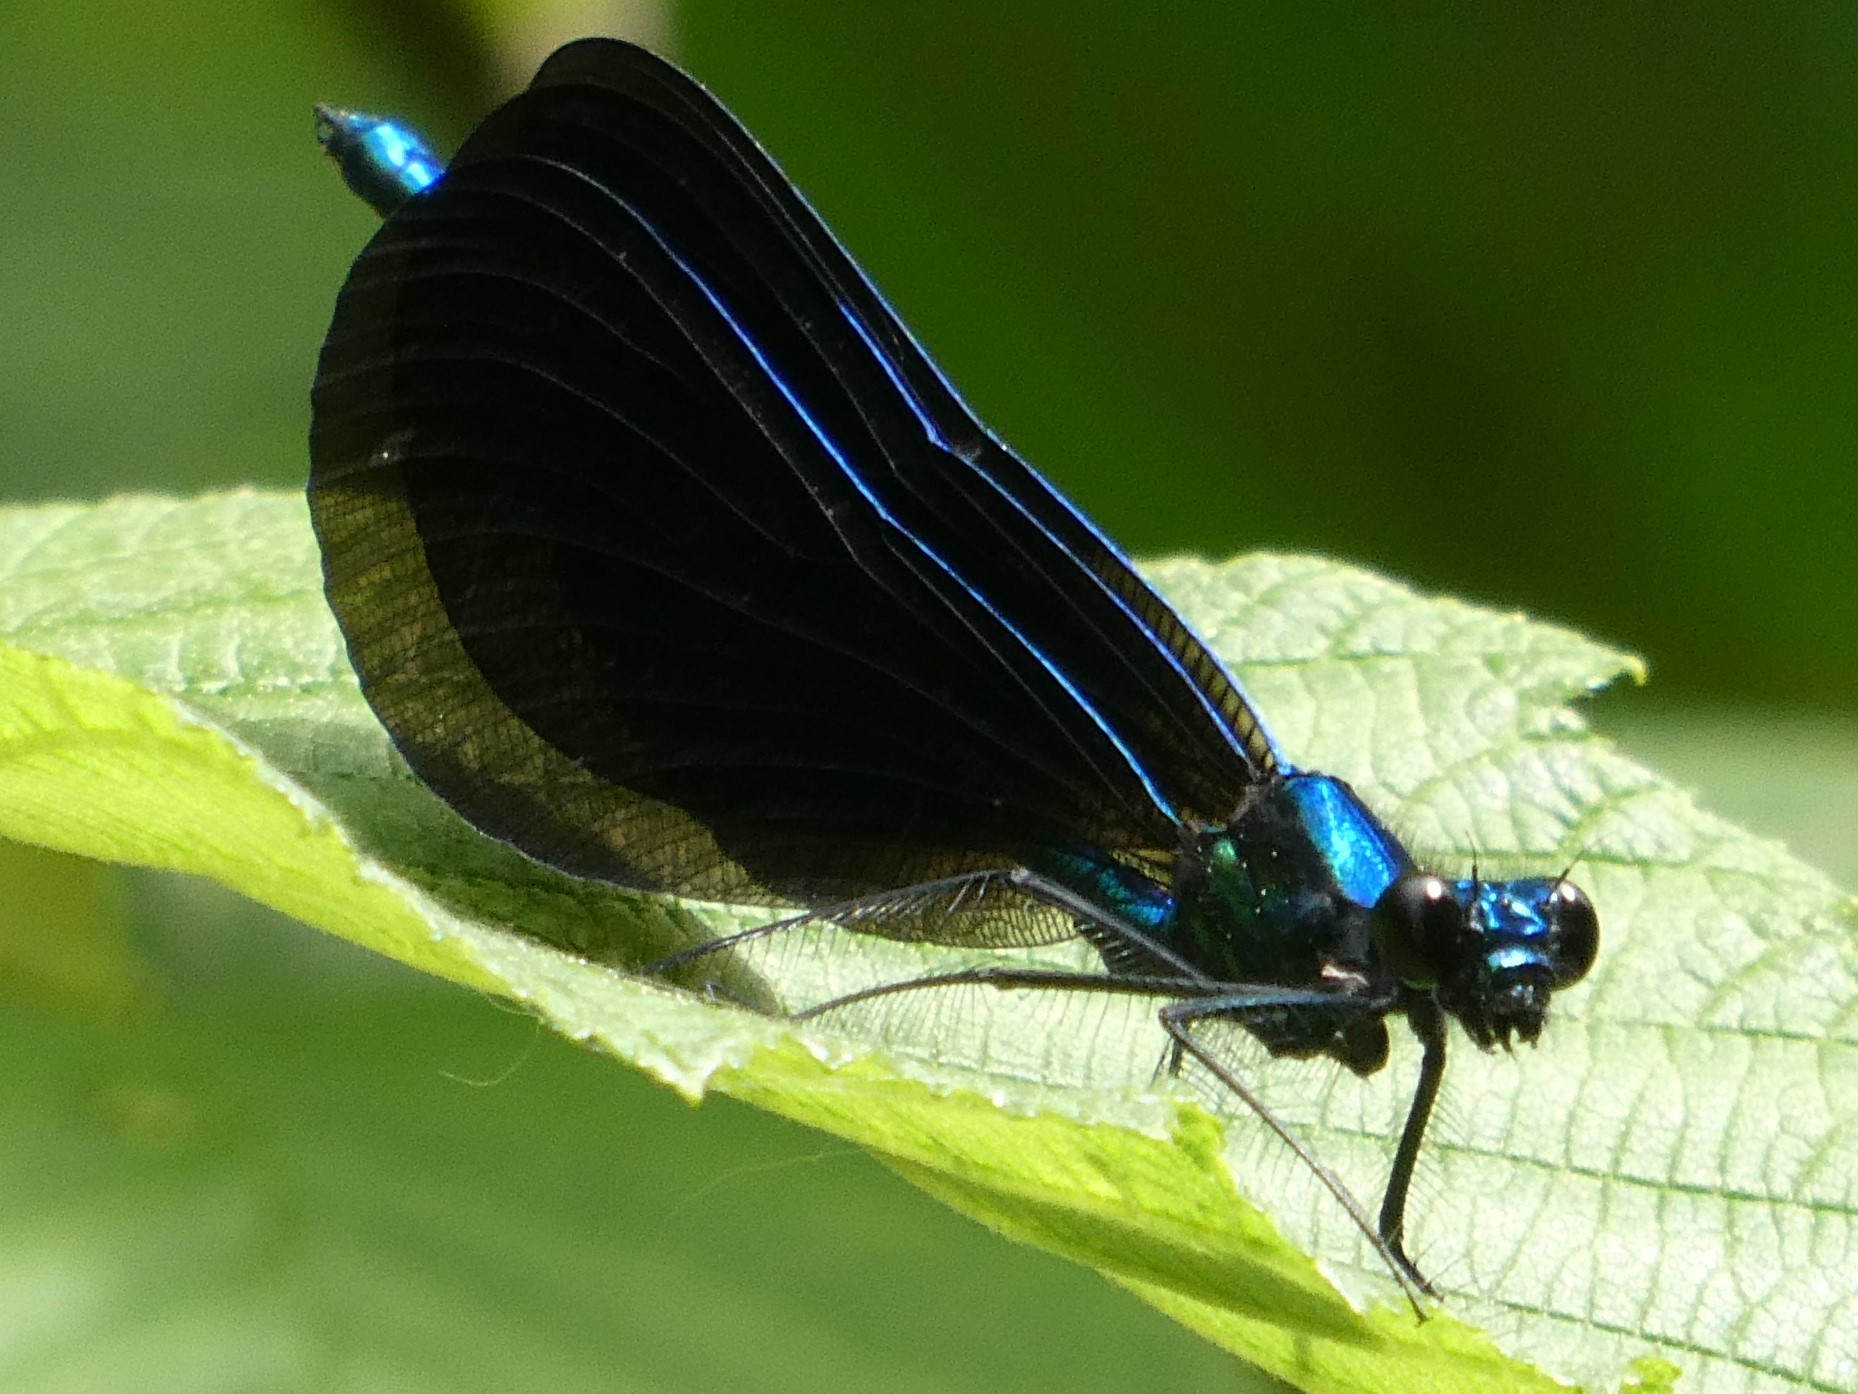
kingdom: Animalia
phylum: Arthropoda
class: Insecta
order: Odonata
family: Calopterygidae
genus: Calopteryx
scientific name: Calopteryx maculata
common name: Ebony jewelwing
